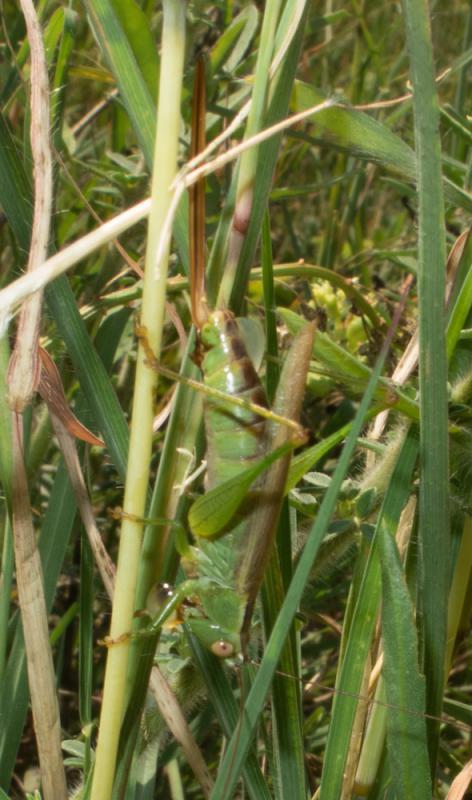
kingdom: Animalia
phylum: Arthropoda
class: Insecta
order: Orthoptera
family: Tettigoniidae
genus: Conocephalus
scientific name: Conocephalus fuscus
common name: Long-winged conehead
